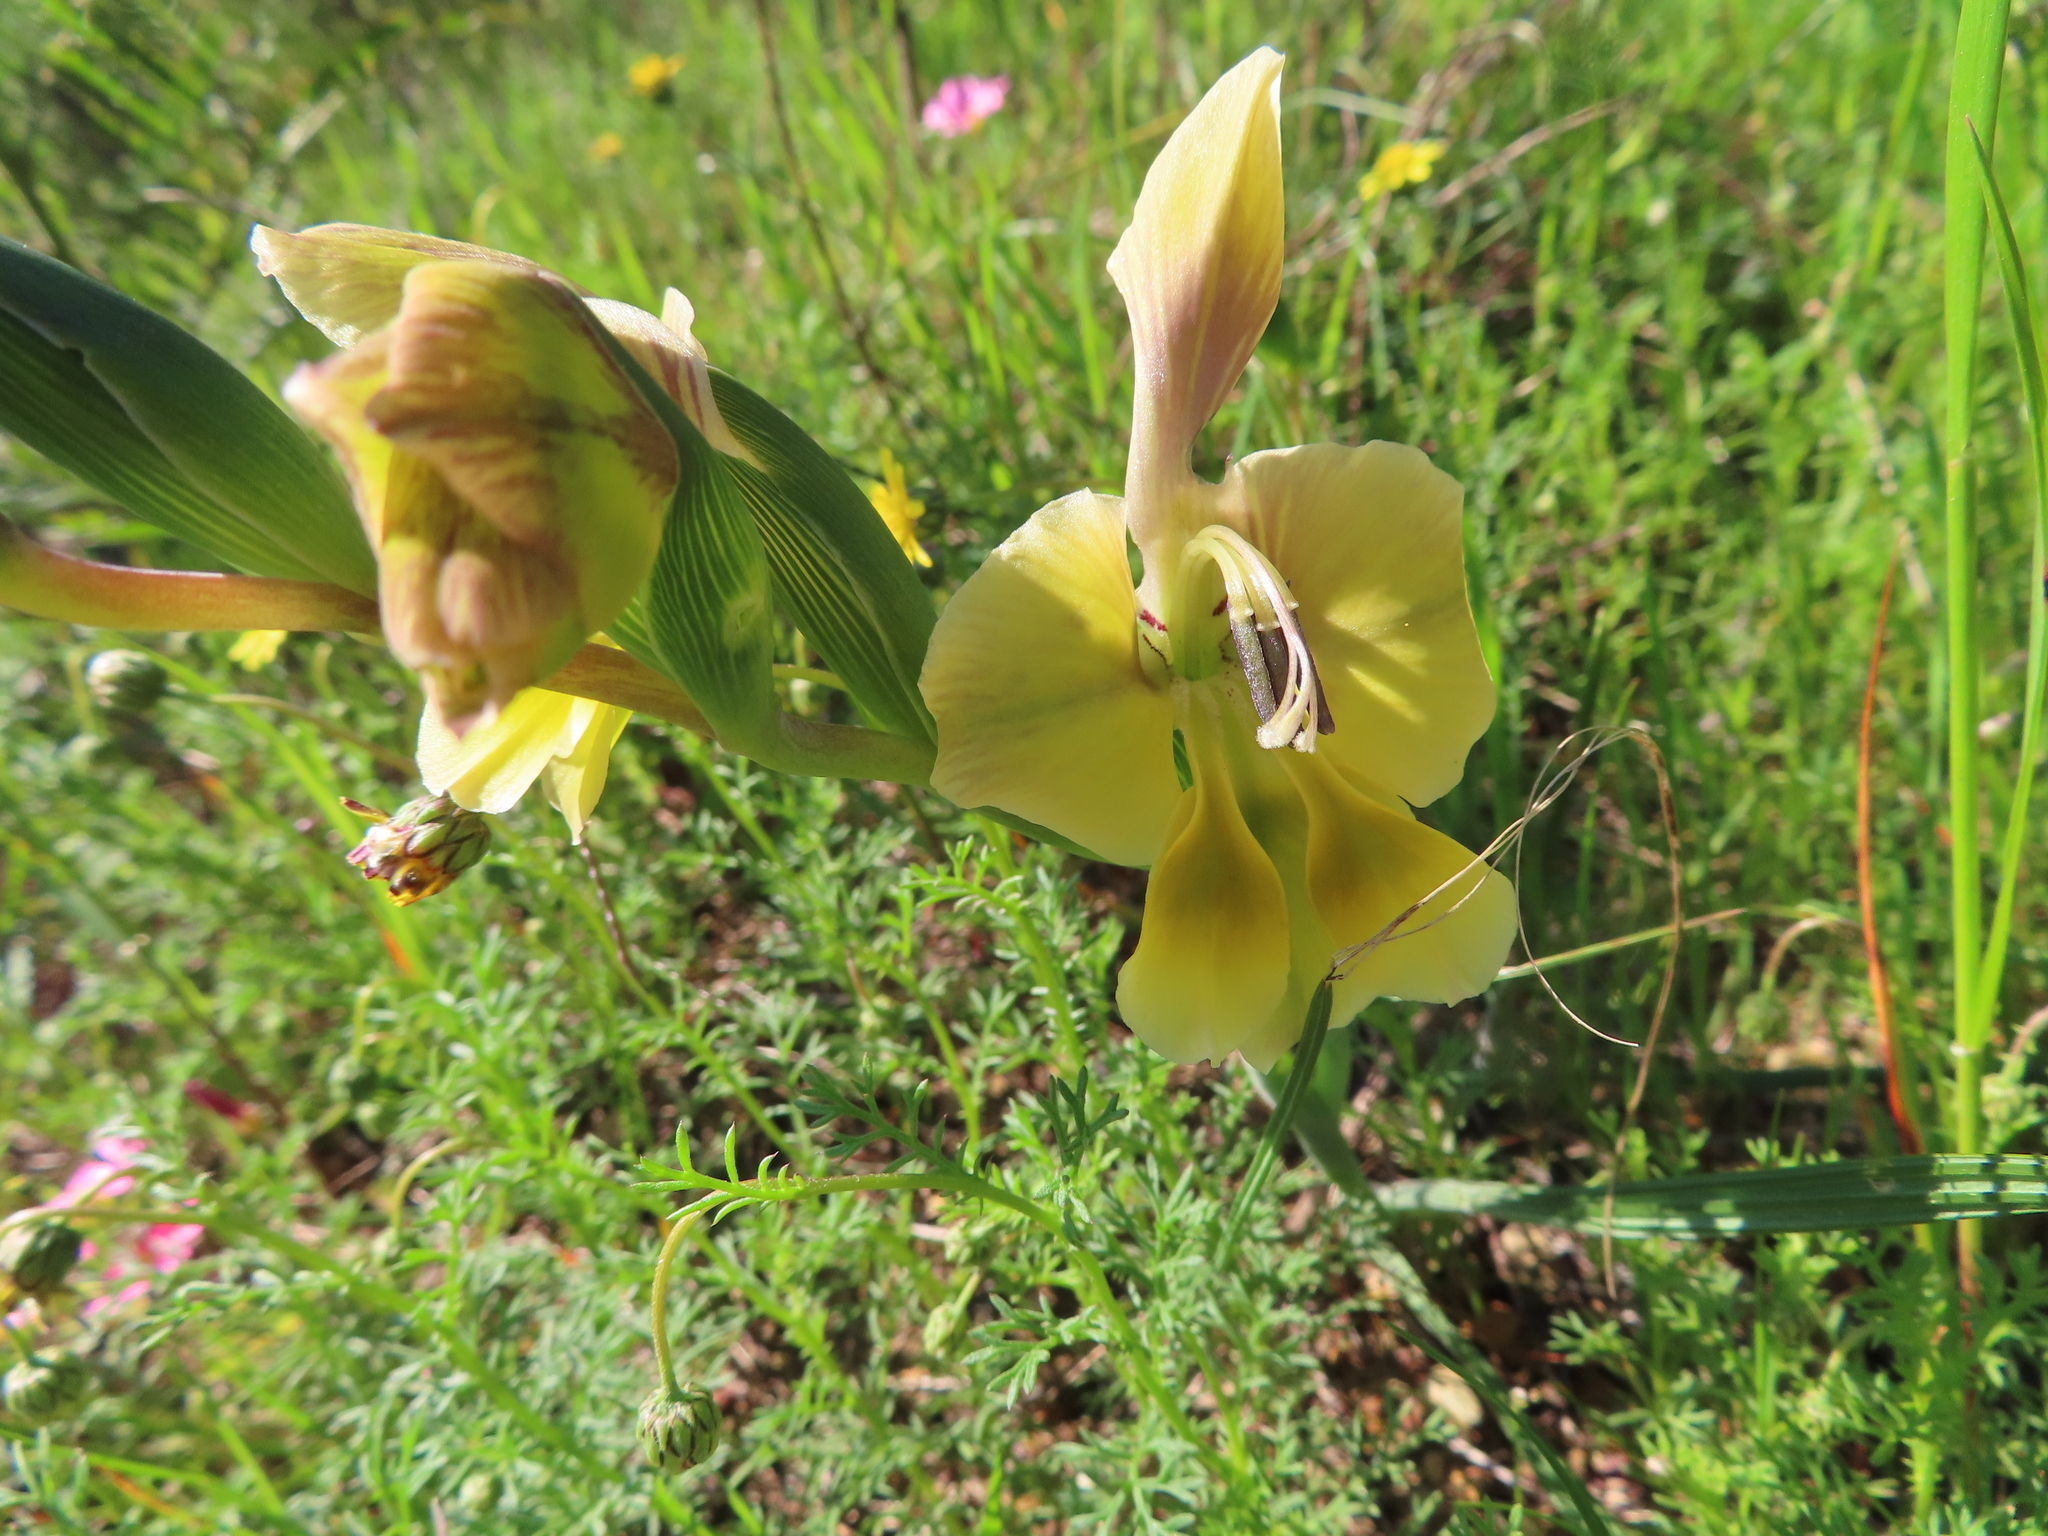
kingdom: Plantae
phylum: Tracheophyta
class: Liliopsida
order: Asparagales
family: Iridaceae
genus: Gladiolus
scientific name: Gladiolus virescens
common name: Yellow kalkoentjie
